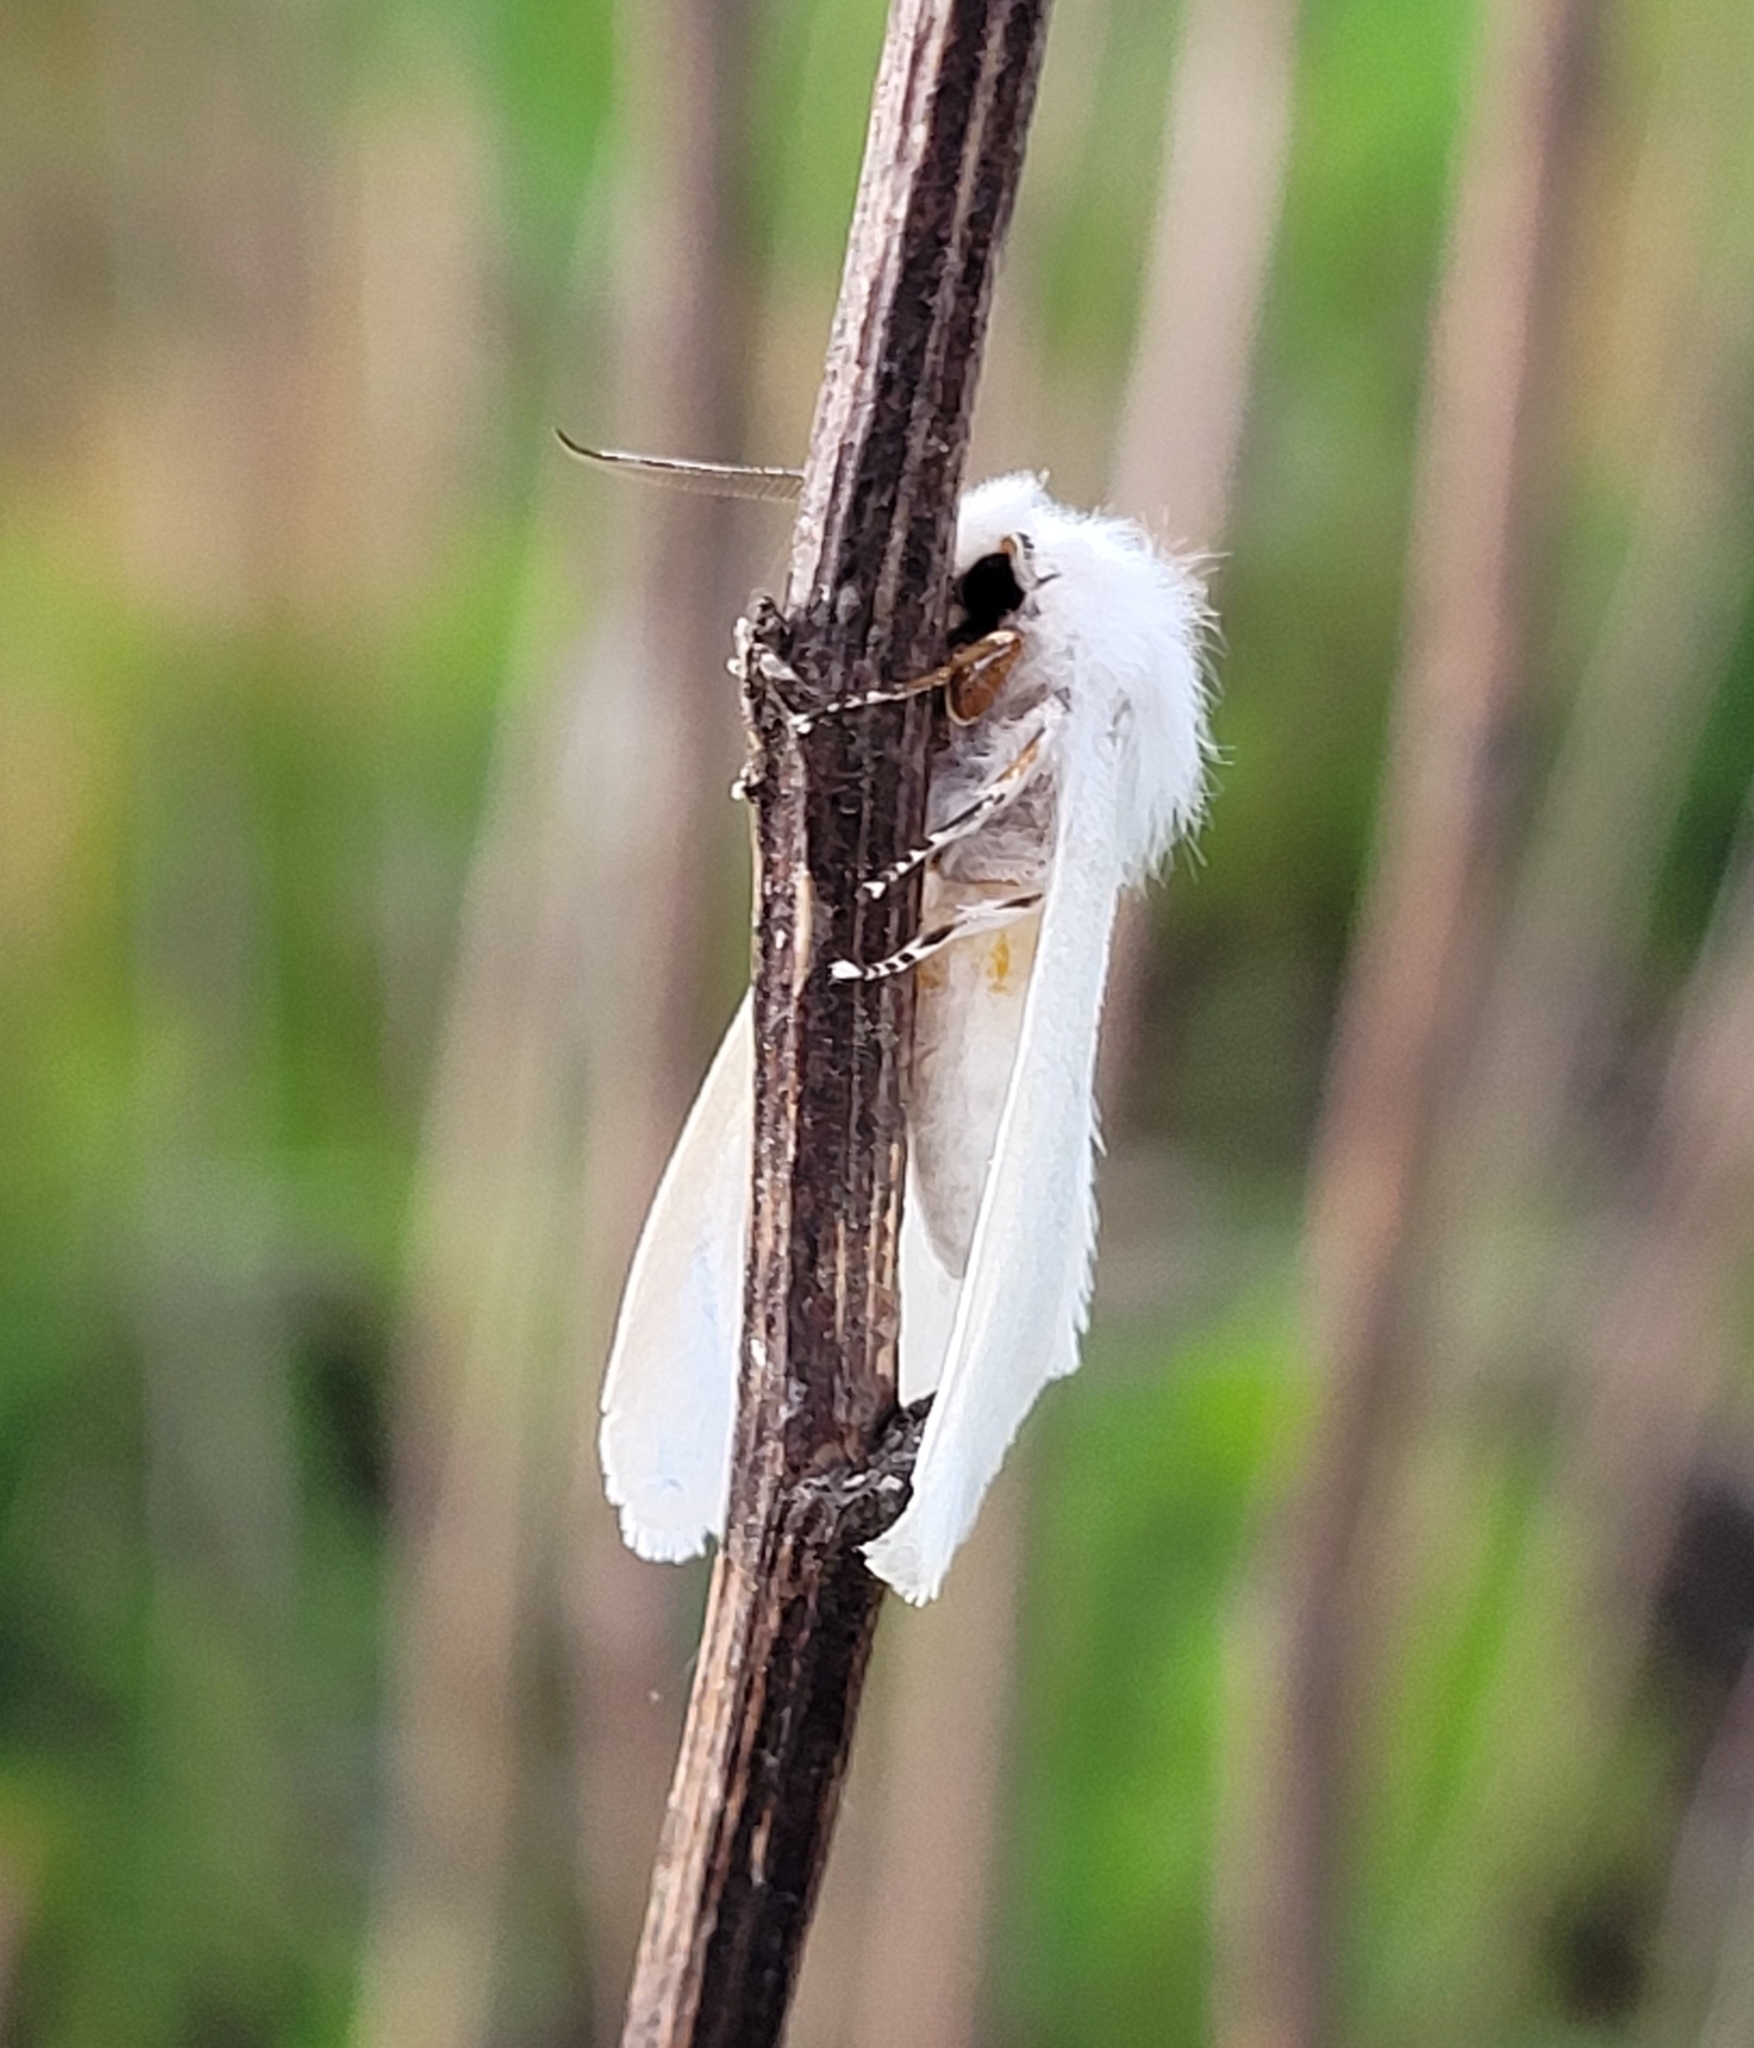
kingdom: Animalia
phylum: Arthropoda
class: Insecta
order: Lepidoptera
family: Erebidae
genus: Hyphantria
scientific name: Hyphantria cunea
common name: American white moth
